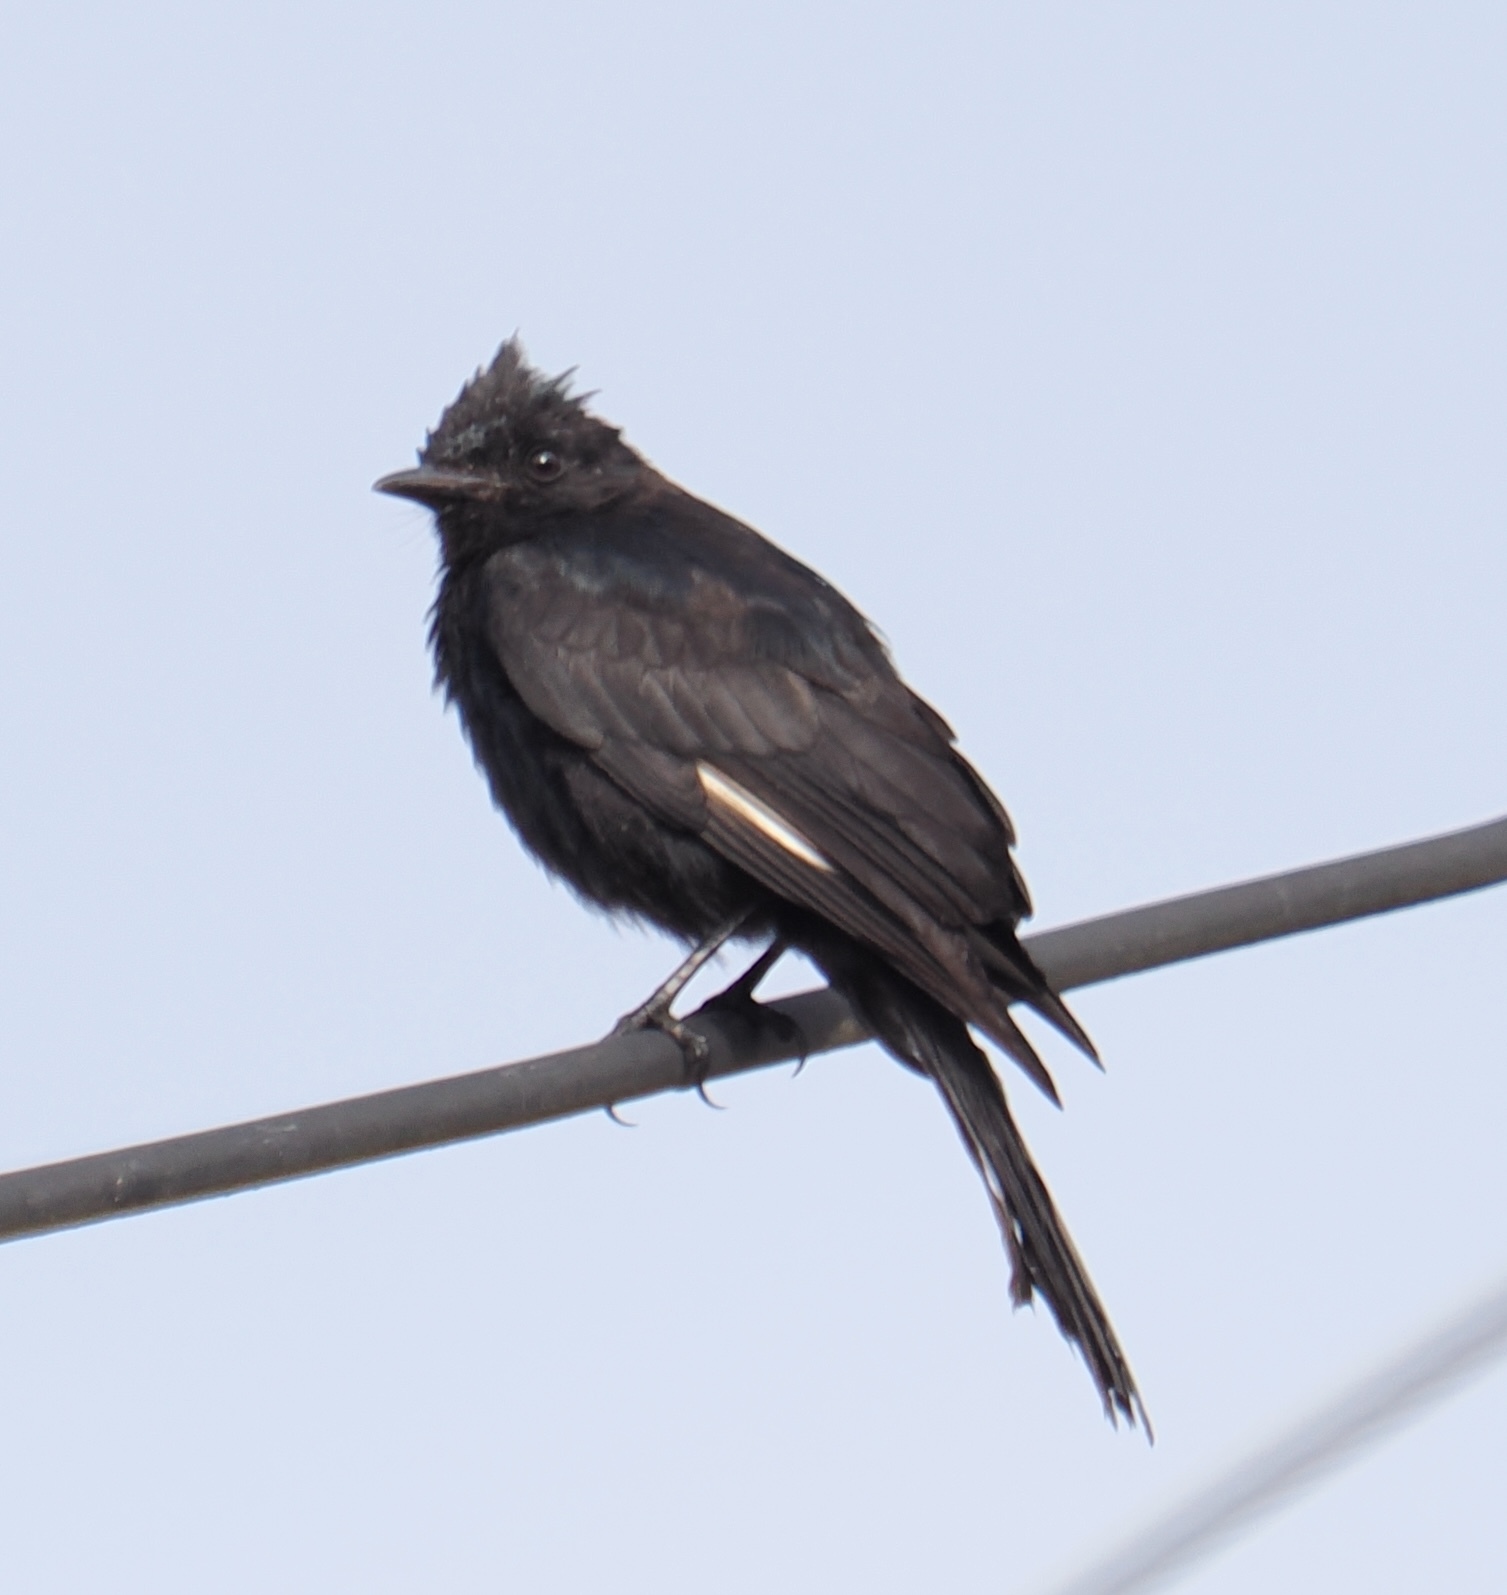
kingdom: Animalia
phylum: Chordata
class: Aves
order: Passeriformes
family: Tyrannidae
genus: Knipolegus
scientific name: Knipolegus lophotes
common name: Crested black tyrant
